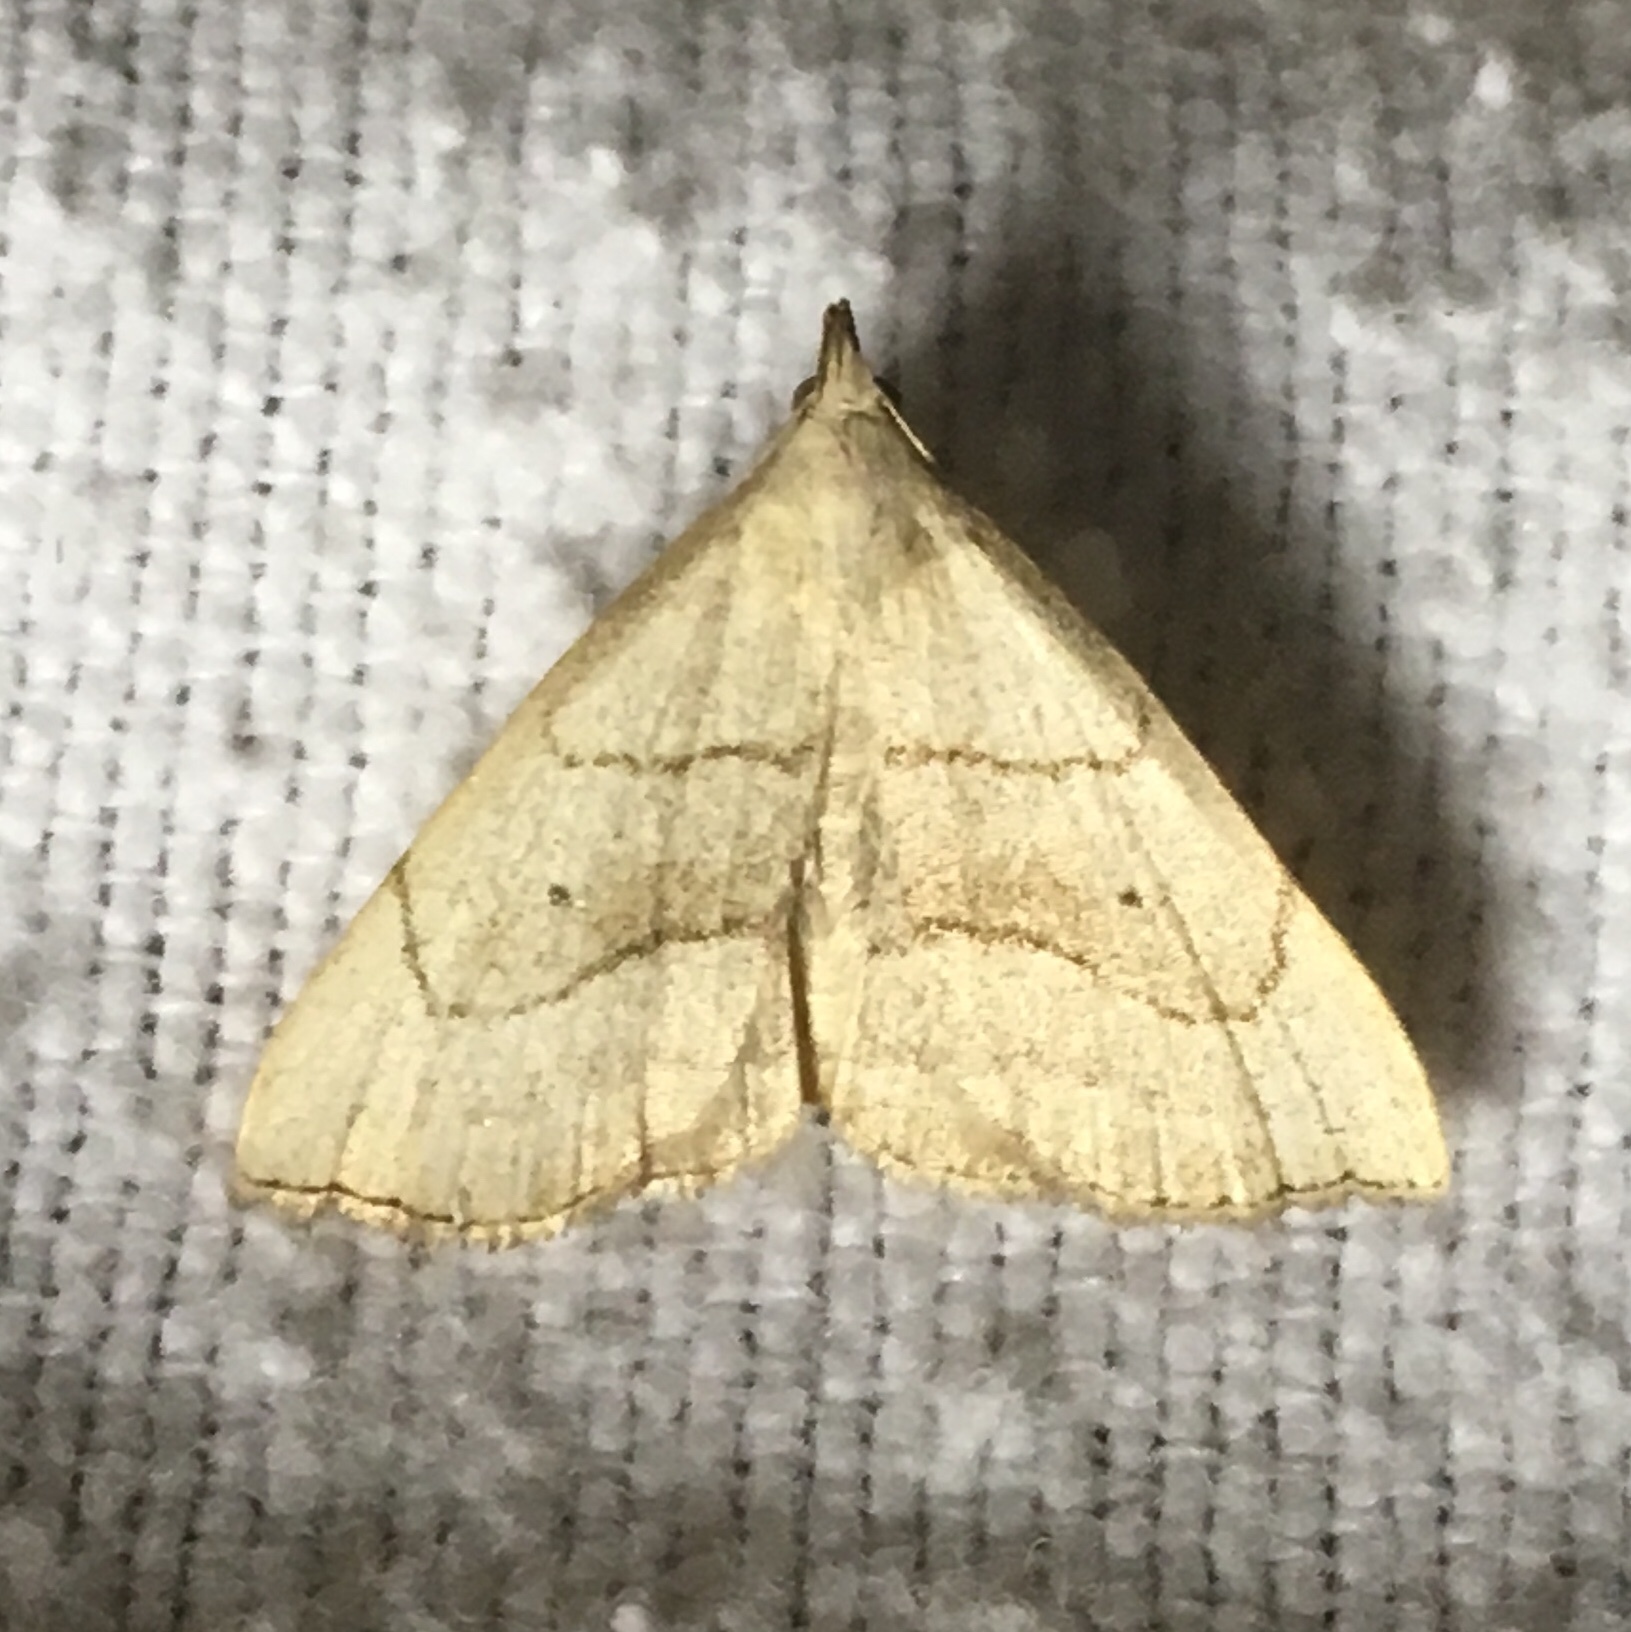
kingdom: Animalia
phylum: Arthropoda
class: Insecta
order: Lepidoptera
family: Erebidae
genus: Macrochilo
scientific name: Macrochilo litophora
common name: Brown-lined owlet
